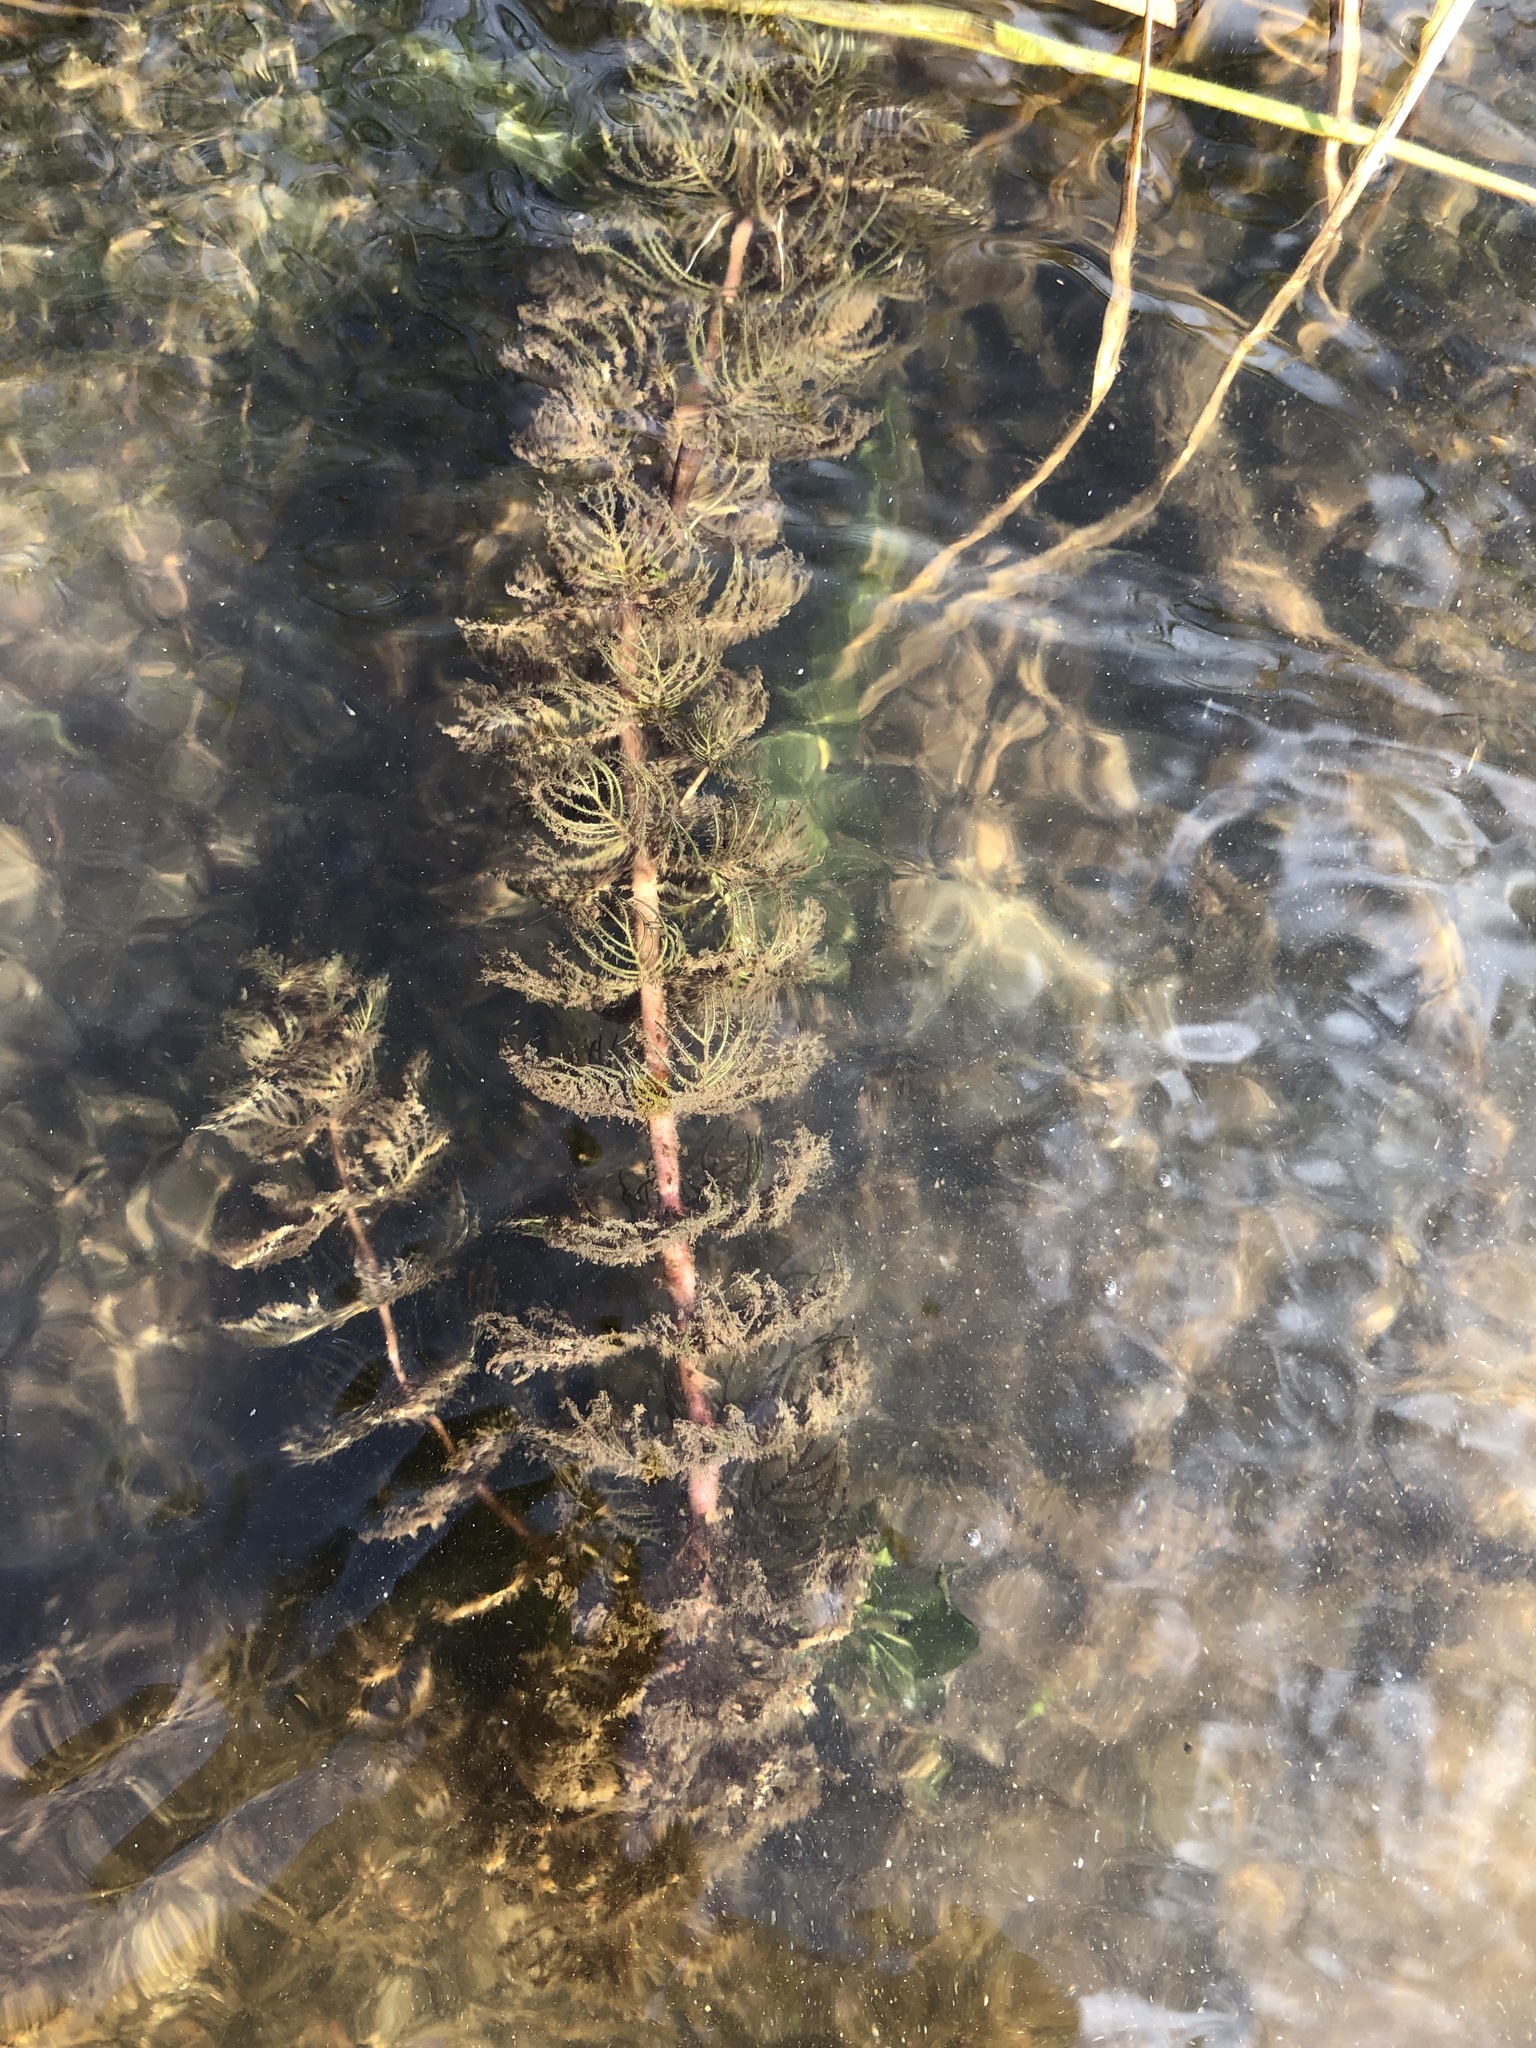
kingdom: Plantae
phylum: Tracheophyta
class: Magnoliopsida
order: Saxifragales
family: Haloragaceae
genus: Myriophyllum
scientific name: Myriophyllum sibiricum
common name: Siberian water-milfoil
